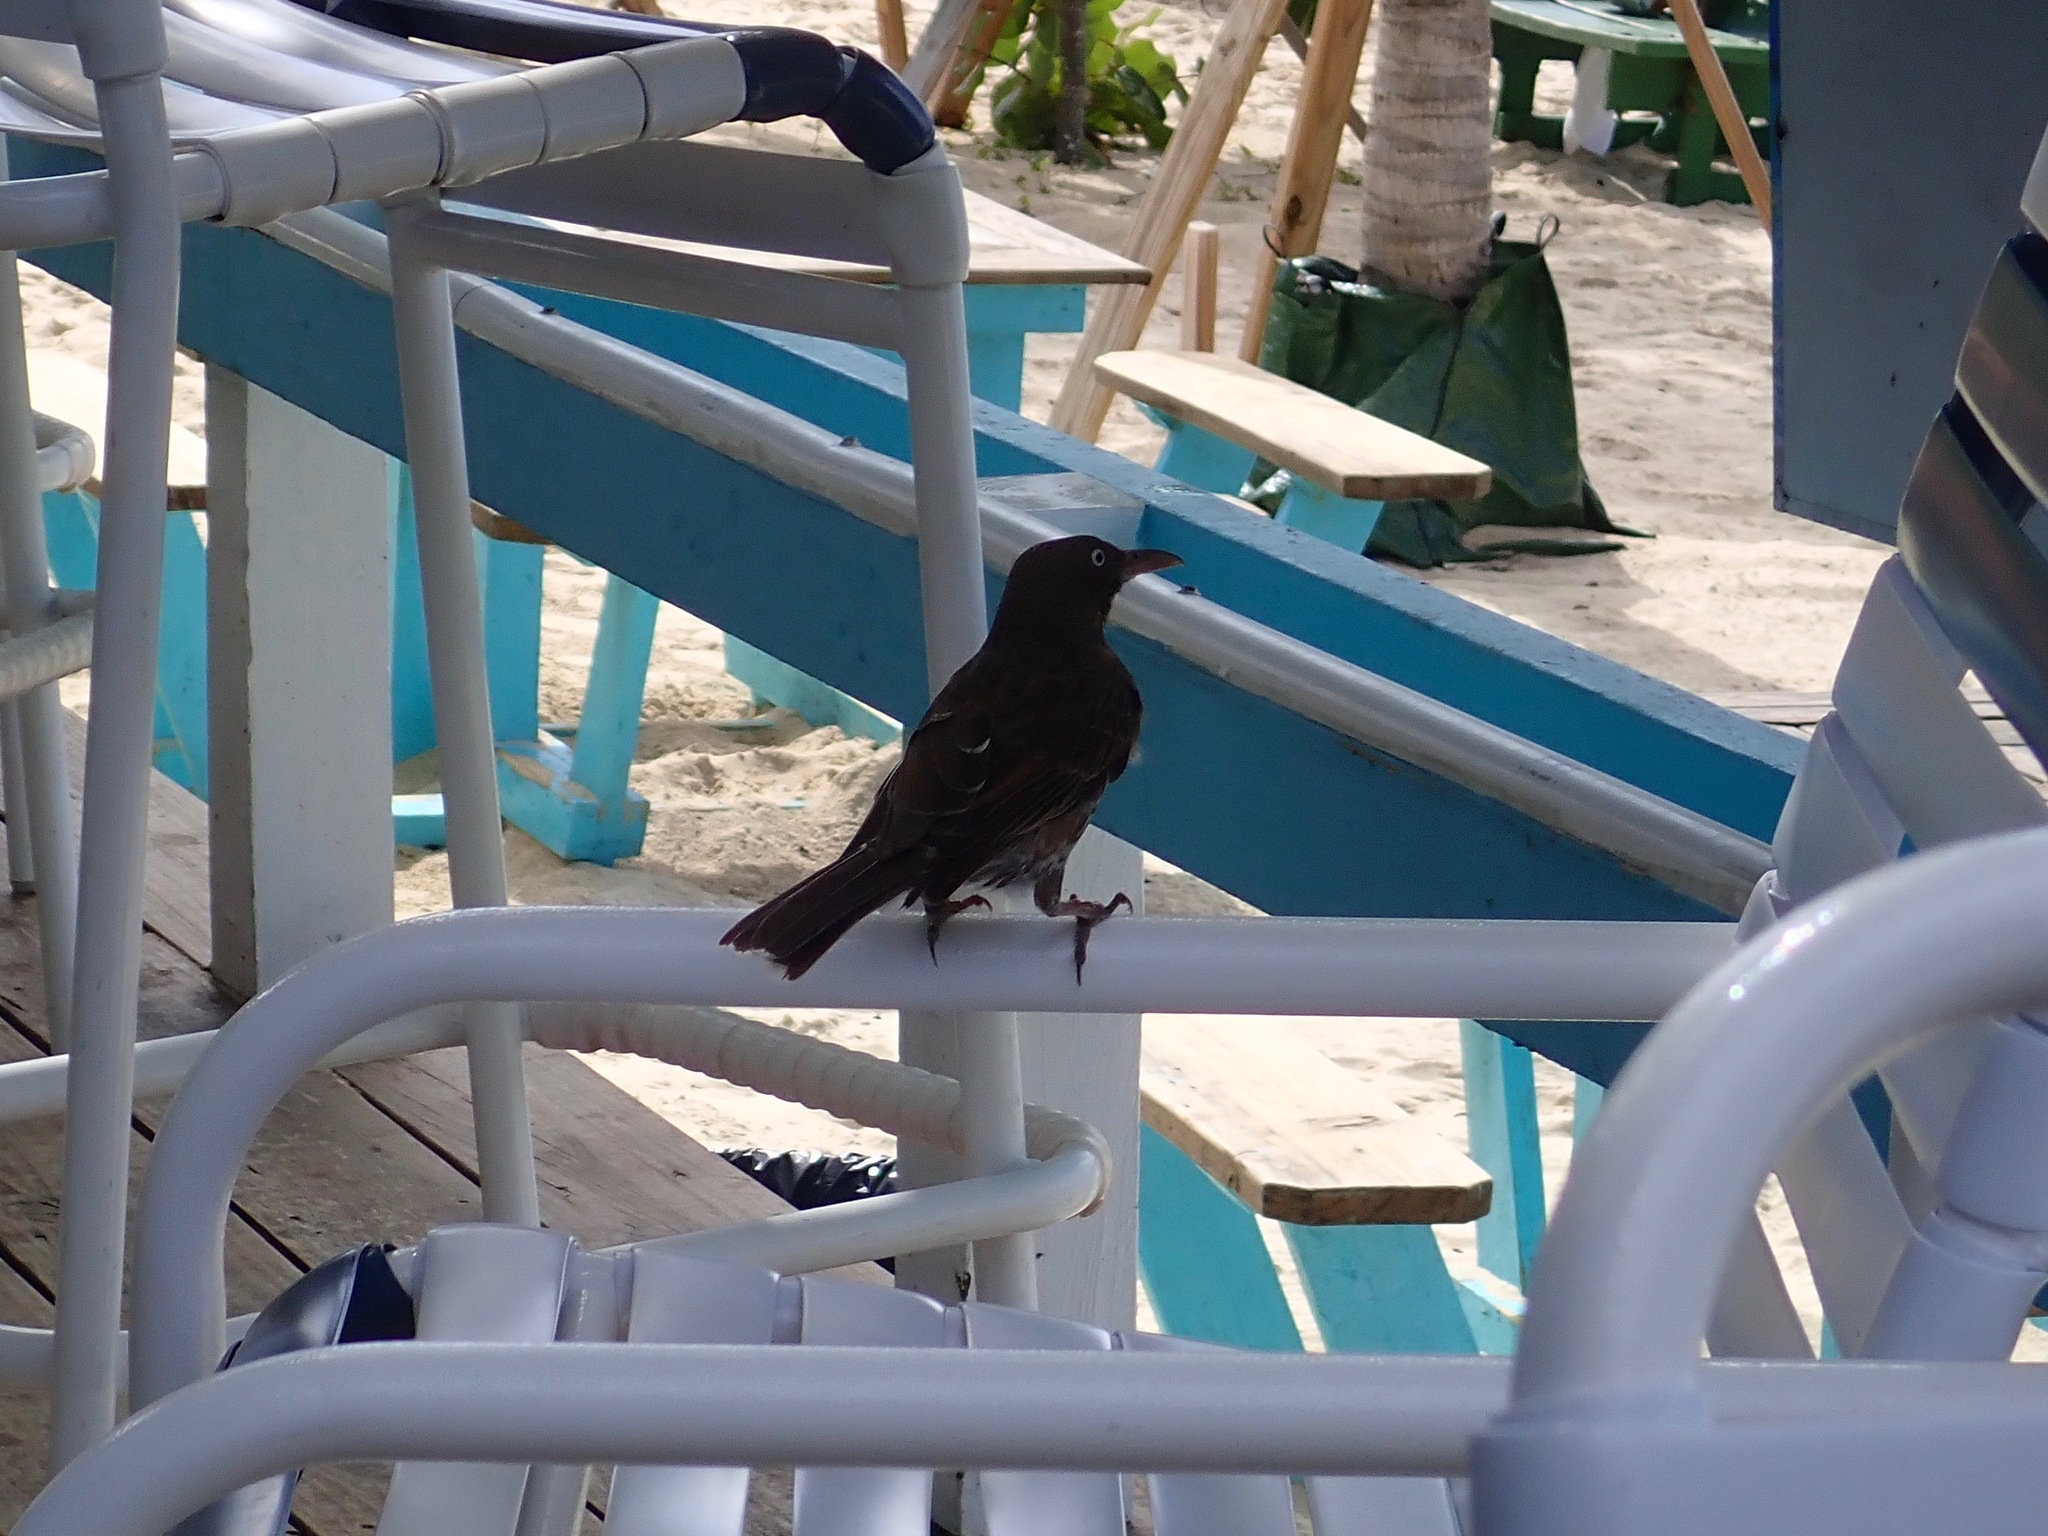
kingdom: Animalia
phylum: Chordata
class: Aves
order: Passeriformes
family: Mimidae
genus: Margarops
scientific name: Margarops fuscatus
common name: Pearly-eyed thrasher
